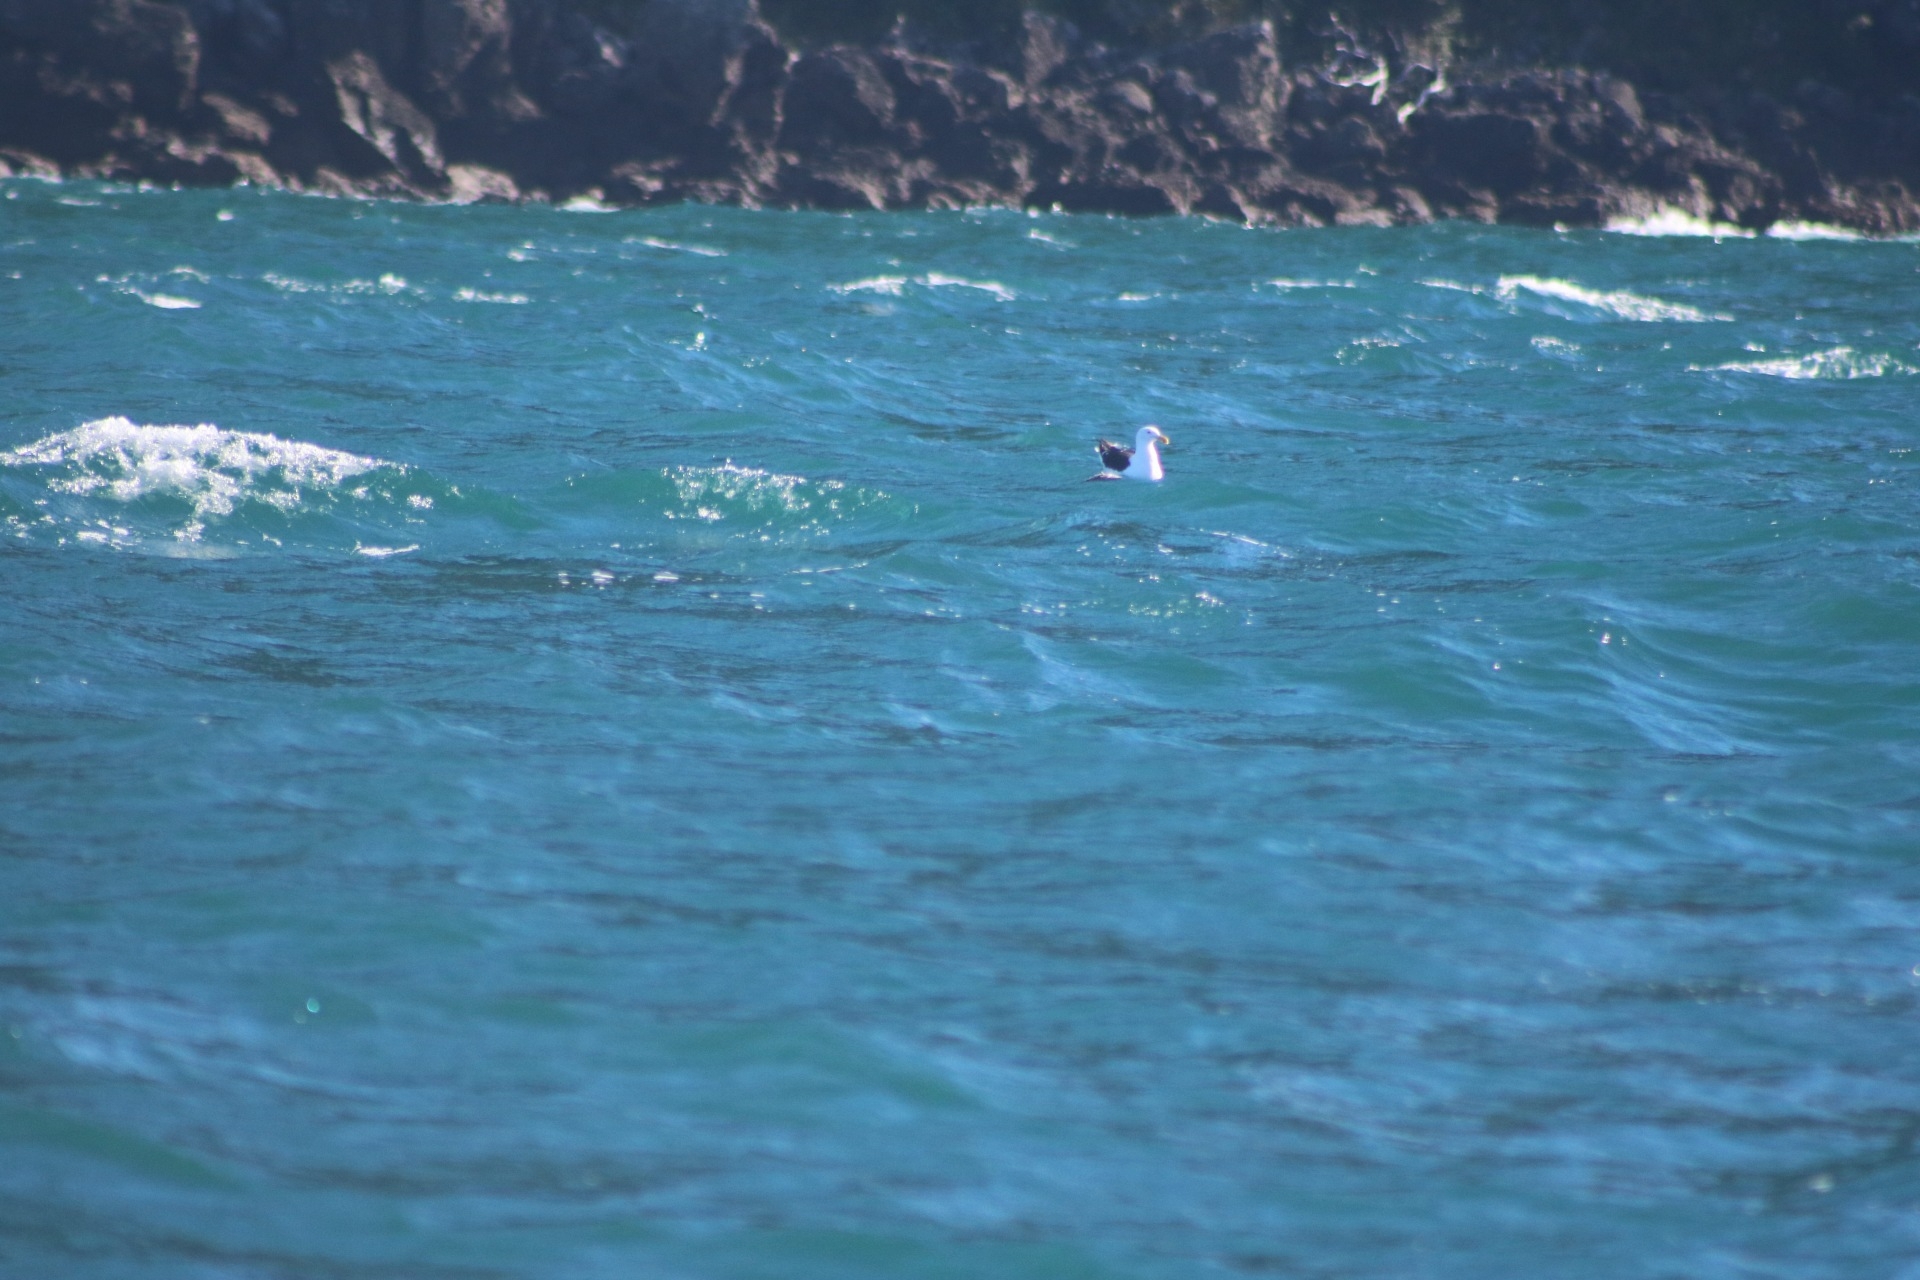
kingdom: Animalia
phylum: Chordata
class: Aves
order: Charadriiformes
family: Laridae
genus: Larus
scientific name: Larus dominicanus
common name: Kelp gull
